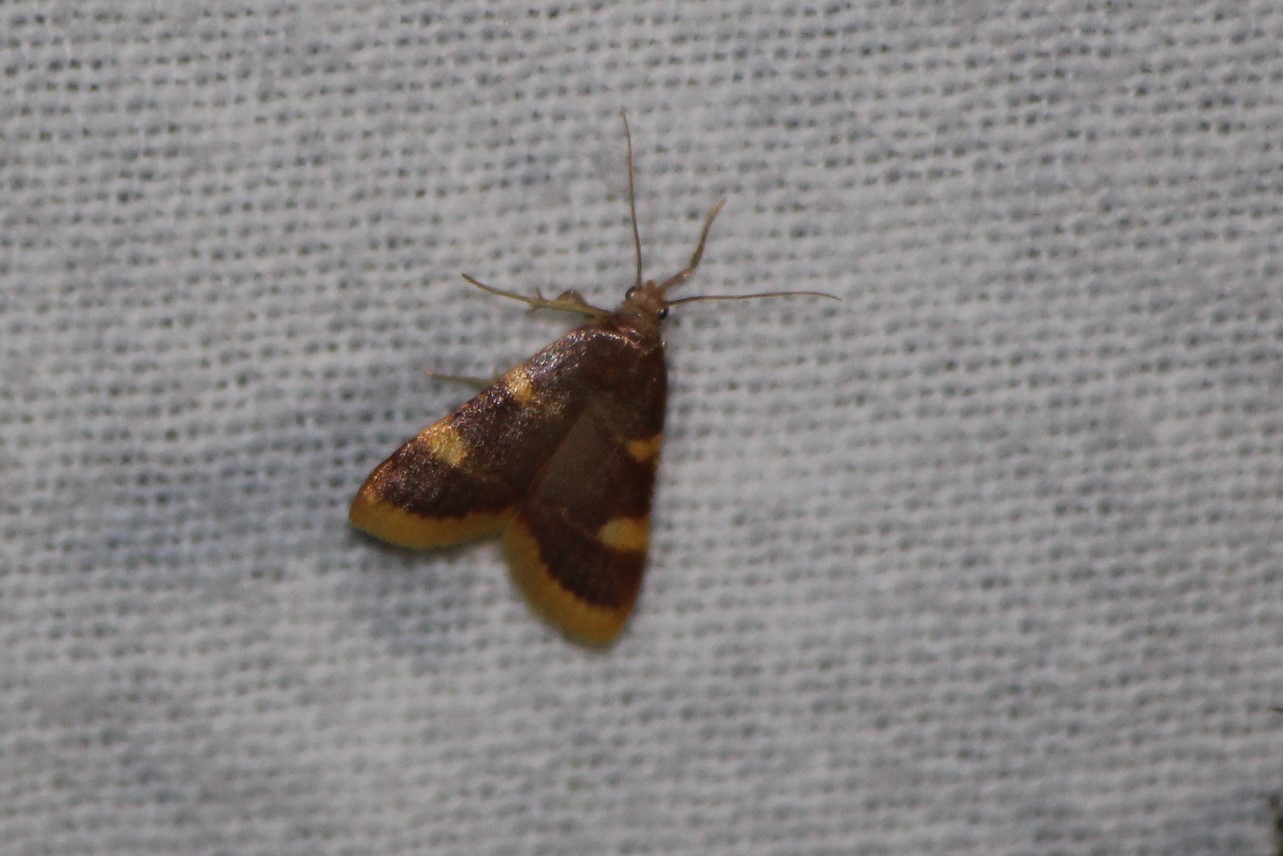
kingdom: Animalia
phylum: Arthropoda
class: Insecta
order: Lepidoptera
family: Pyralidae
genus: Hypsopygia
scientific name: Hypsopygia costalis
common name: Gold triangle
